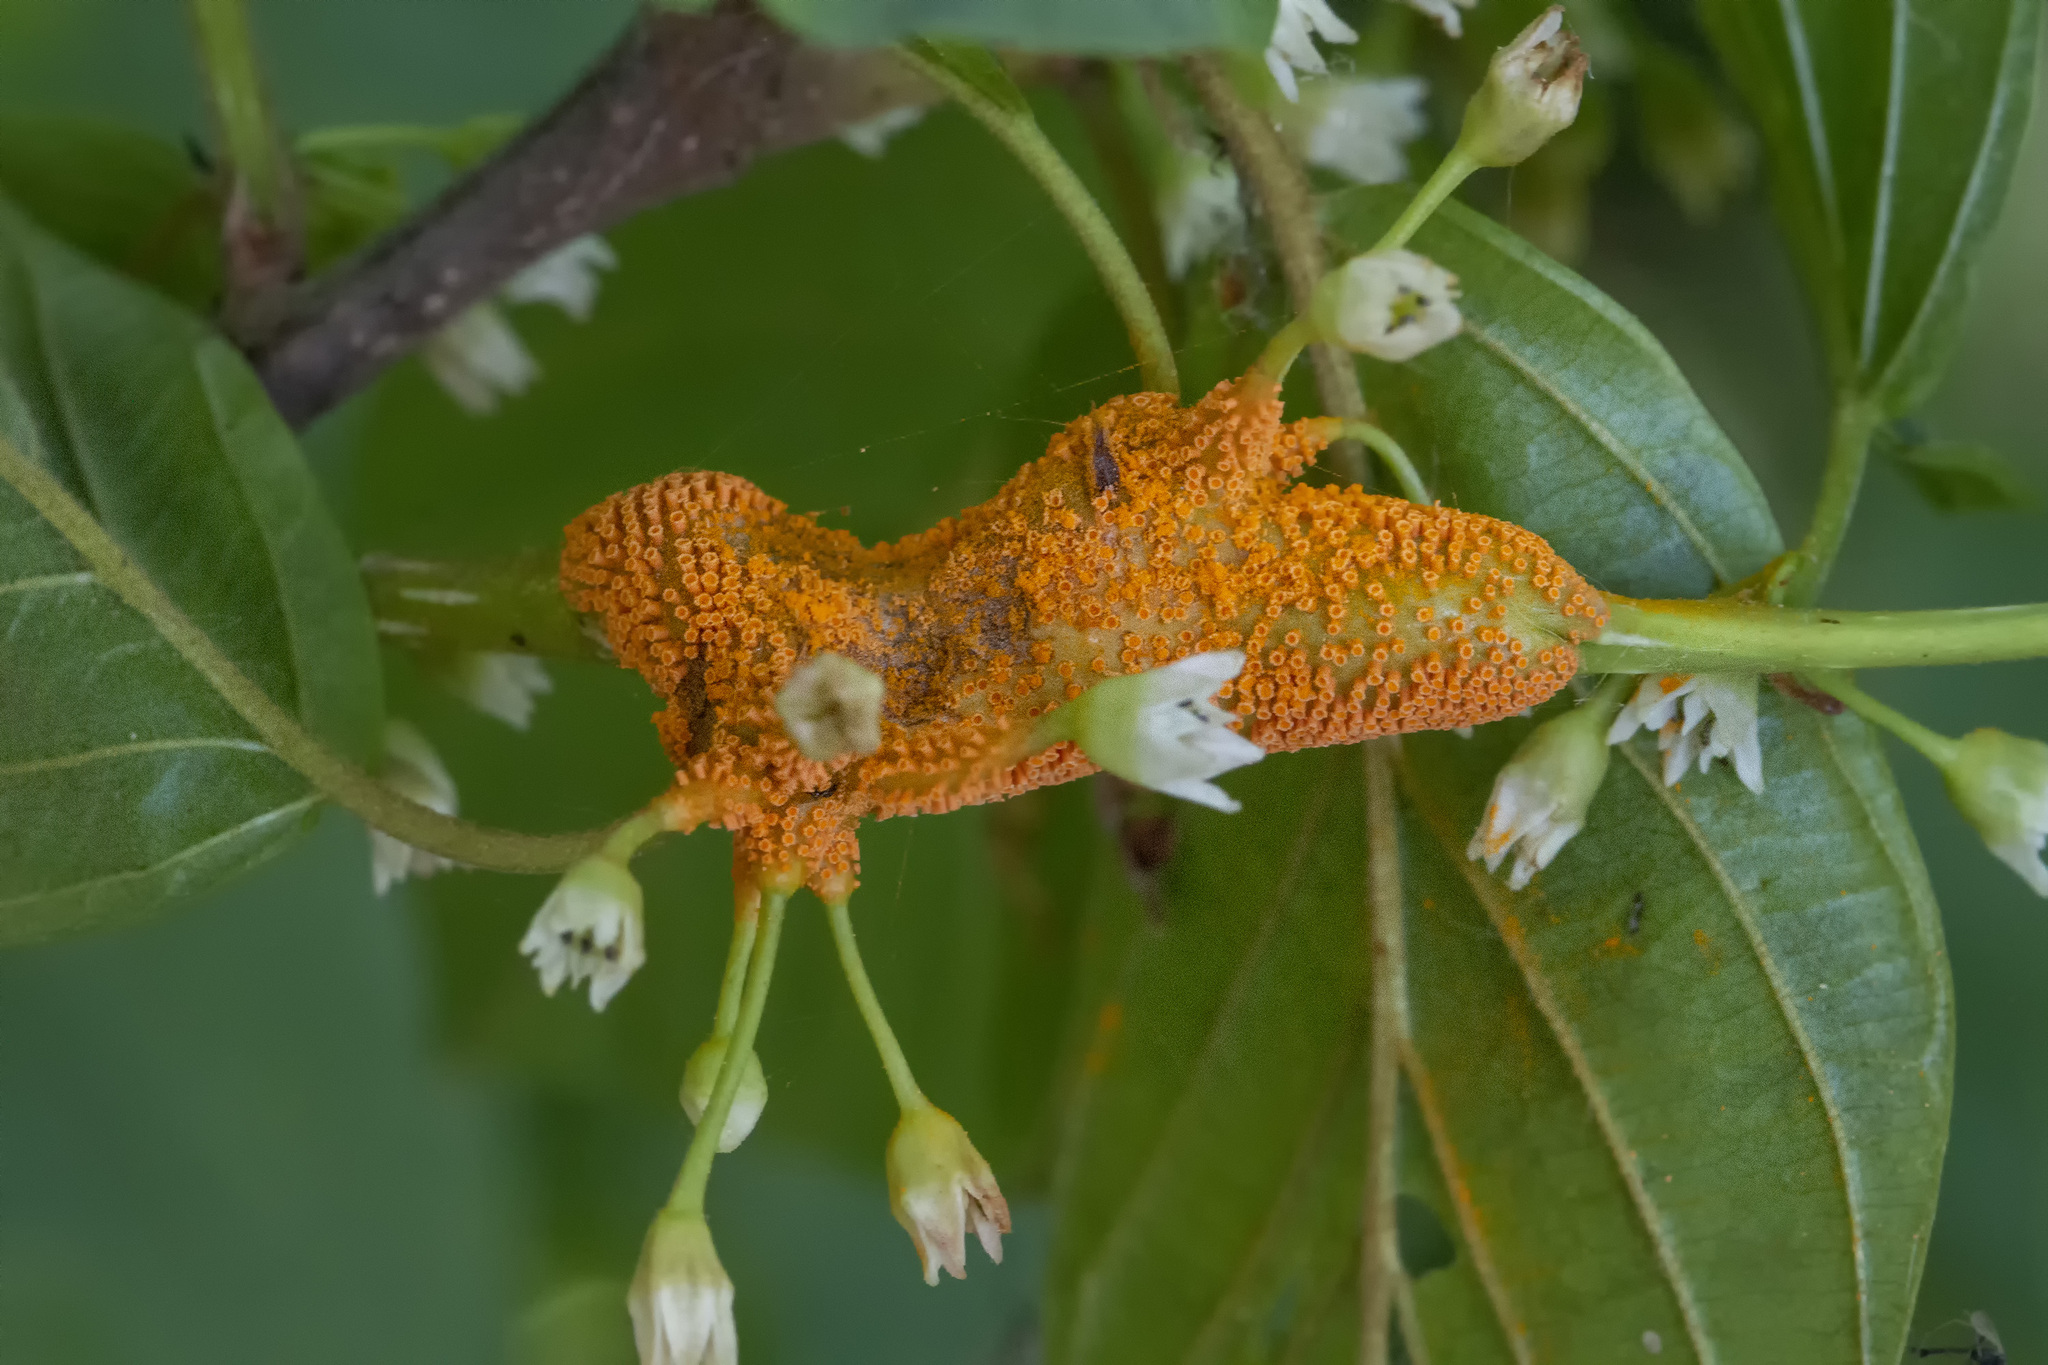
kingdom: Fungi
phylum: Basidiomycota
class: Pucciniomycetes
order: Pucciniales
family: Pucciniaceae
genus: Puccinia
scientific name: Puccinia coronata
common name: Crown rust
